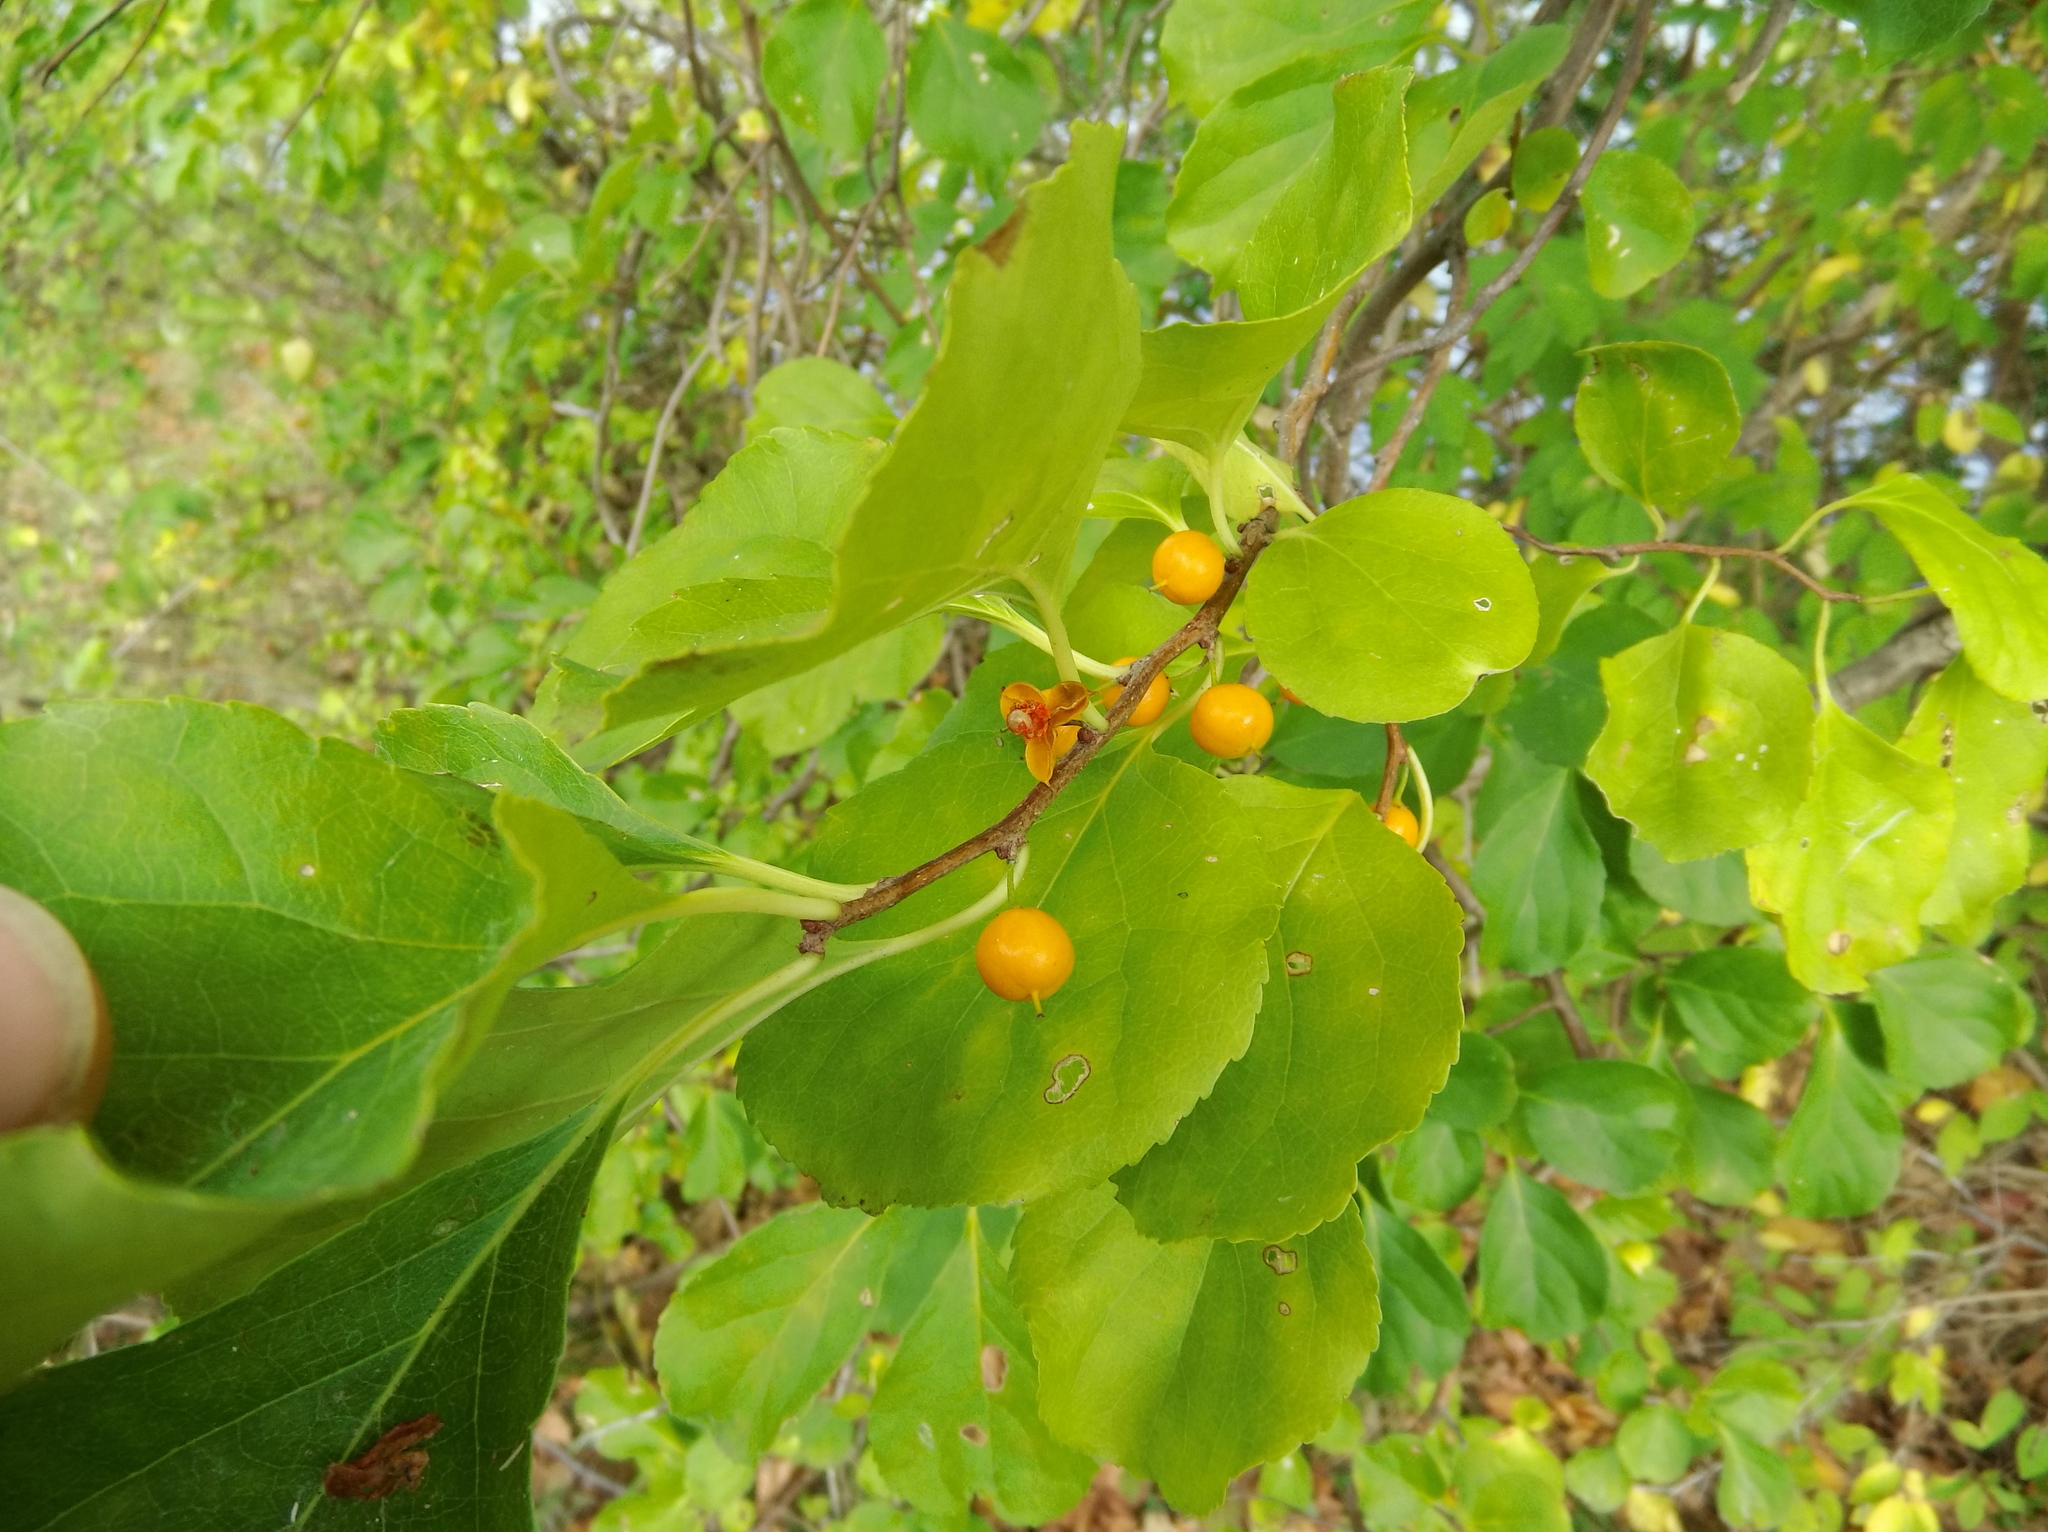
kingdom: Plantae
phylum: Tracheophyta
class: Magnoliopsida
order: Celastrales
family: Celastraceae
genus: Celastrus
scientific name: Celastrus orbiculatus
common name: Oriental bittersweet
